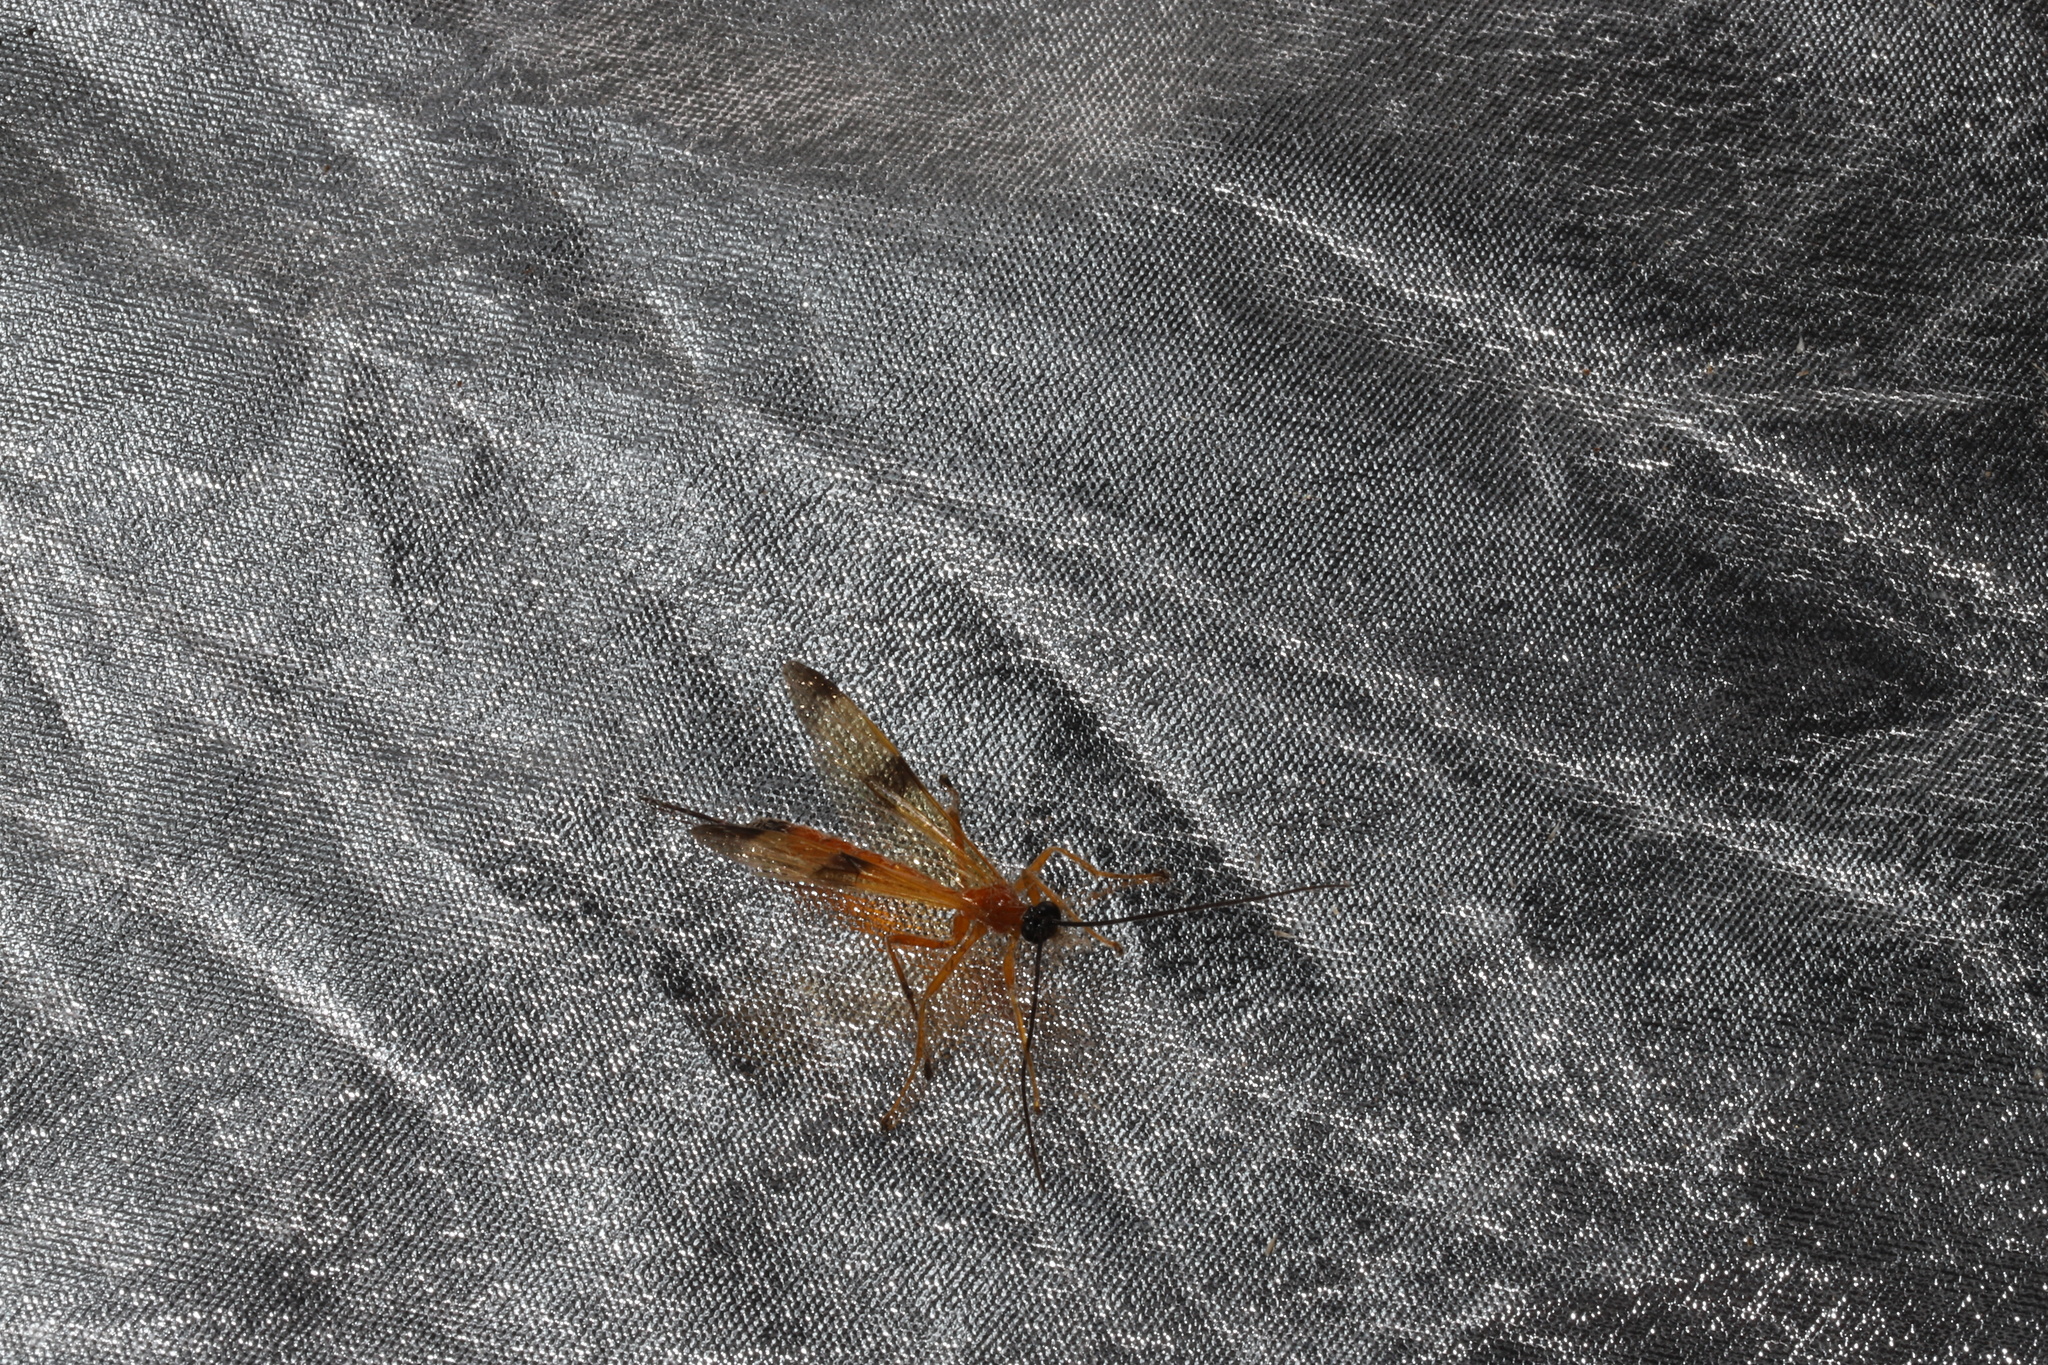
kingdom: Animalia
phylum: Arthropoda
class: Insecta
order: Hymenoptera
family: Ichneumonidae
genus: Acrotaphus
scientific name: Acrotaphus wiltii
